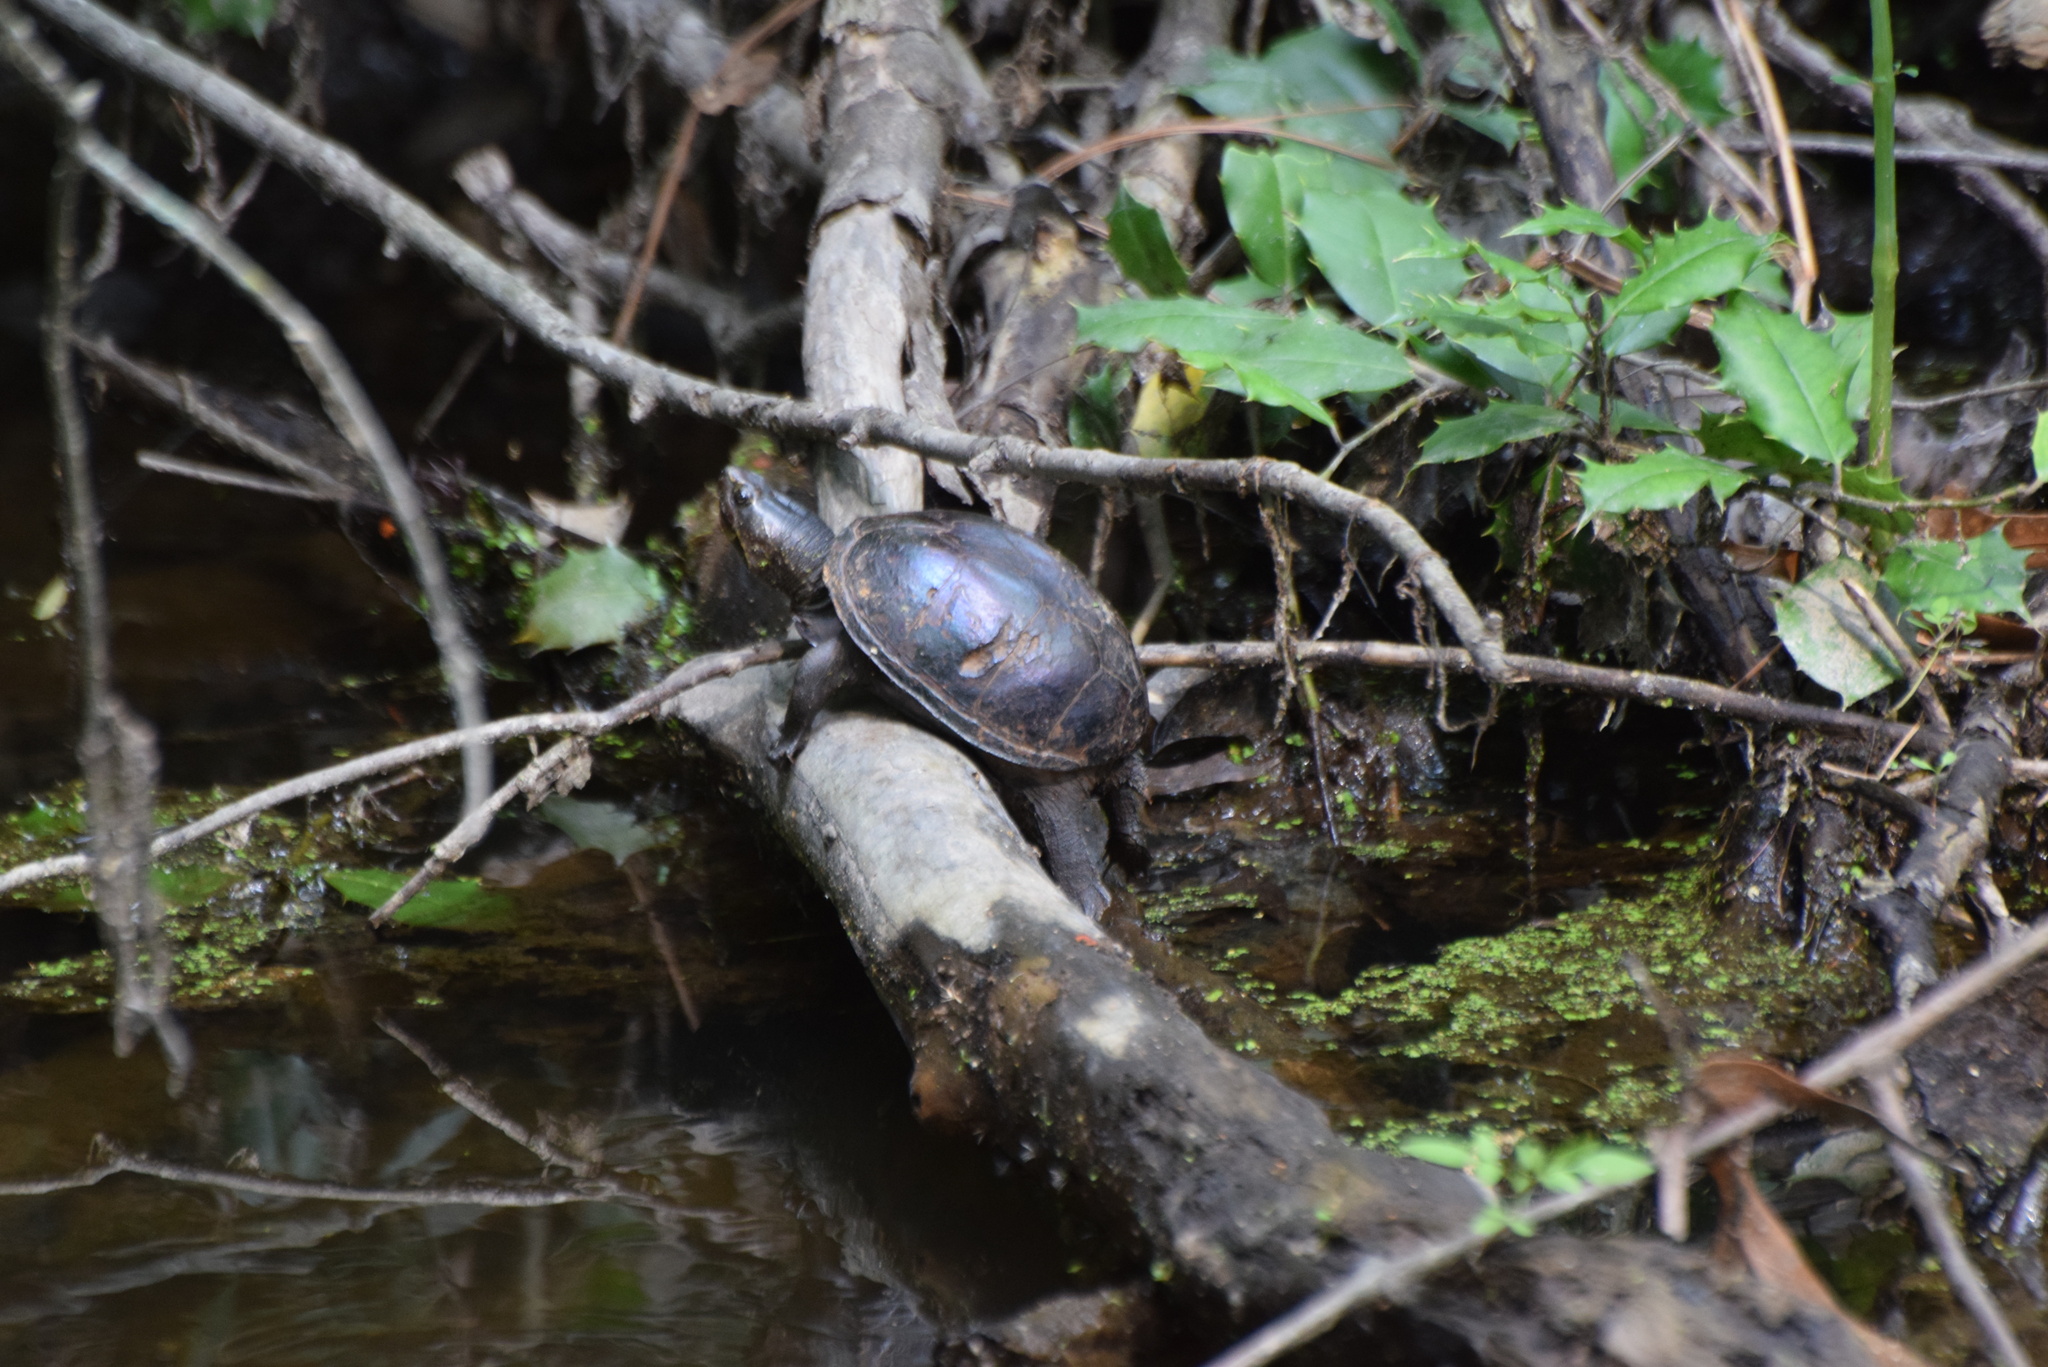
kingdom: Animalia
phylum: Chordata
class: Testudines
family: Kinosternidae
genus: Kinosternon
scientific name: Kinosternon baurii
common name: Striped mud turtle
